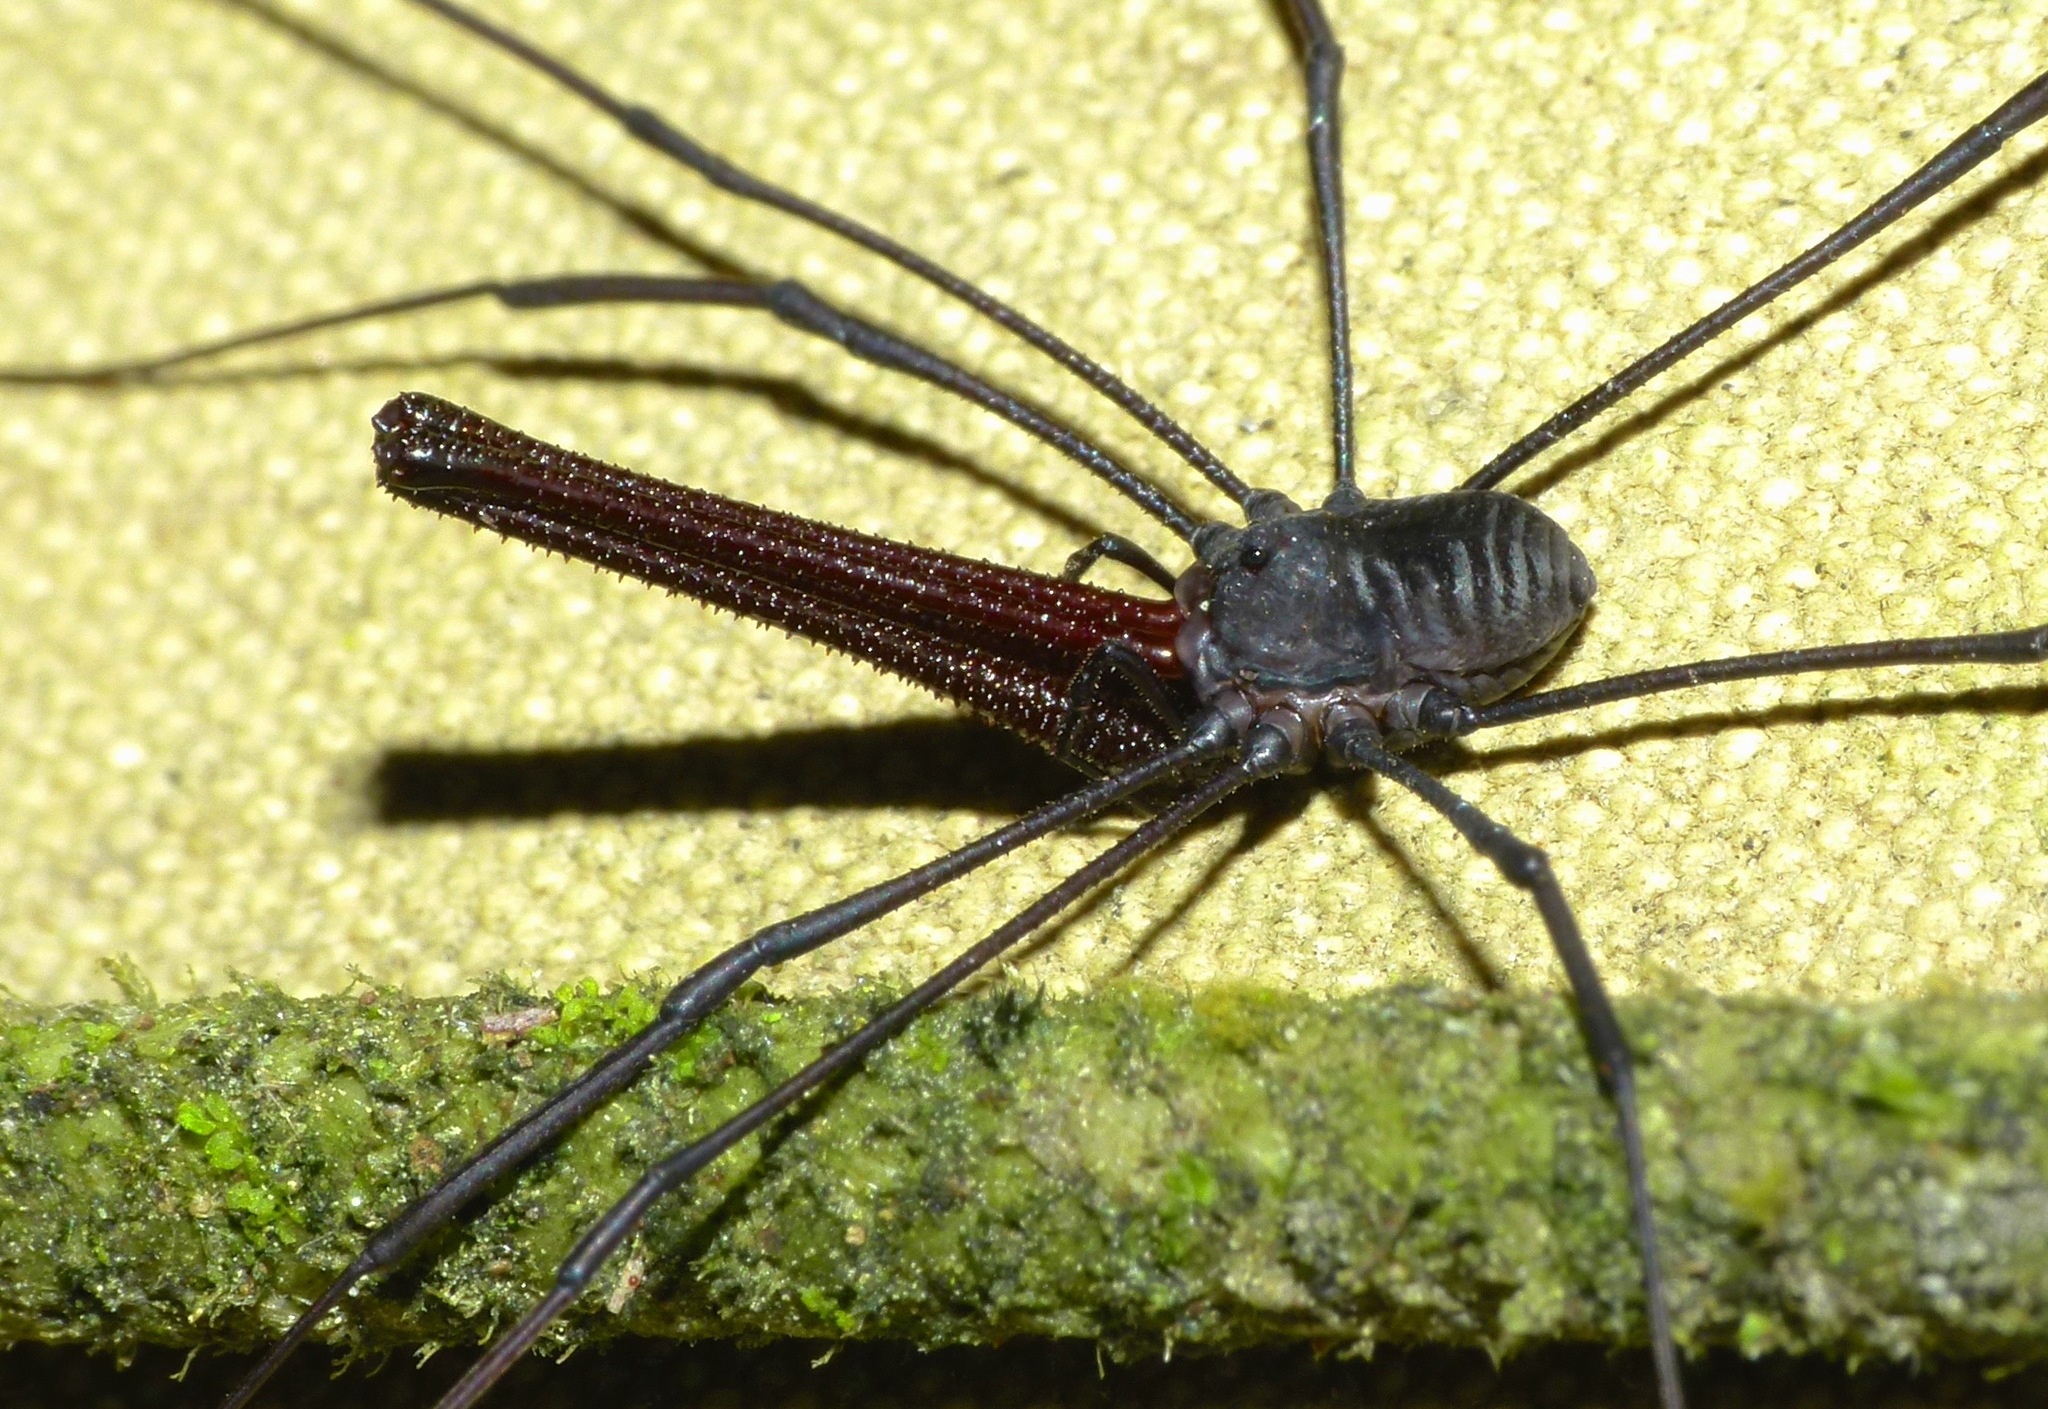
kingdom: Animalia
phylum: Arthropoda
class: Arachnida
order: Opiliones
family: Neopilionidae
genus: Pantopsalis
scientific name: Pantopsalis albipalpis
